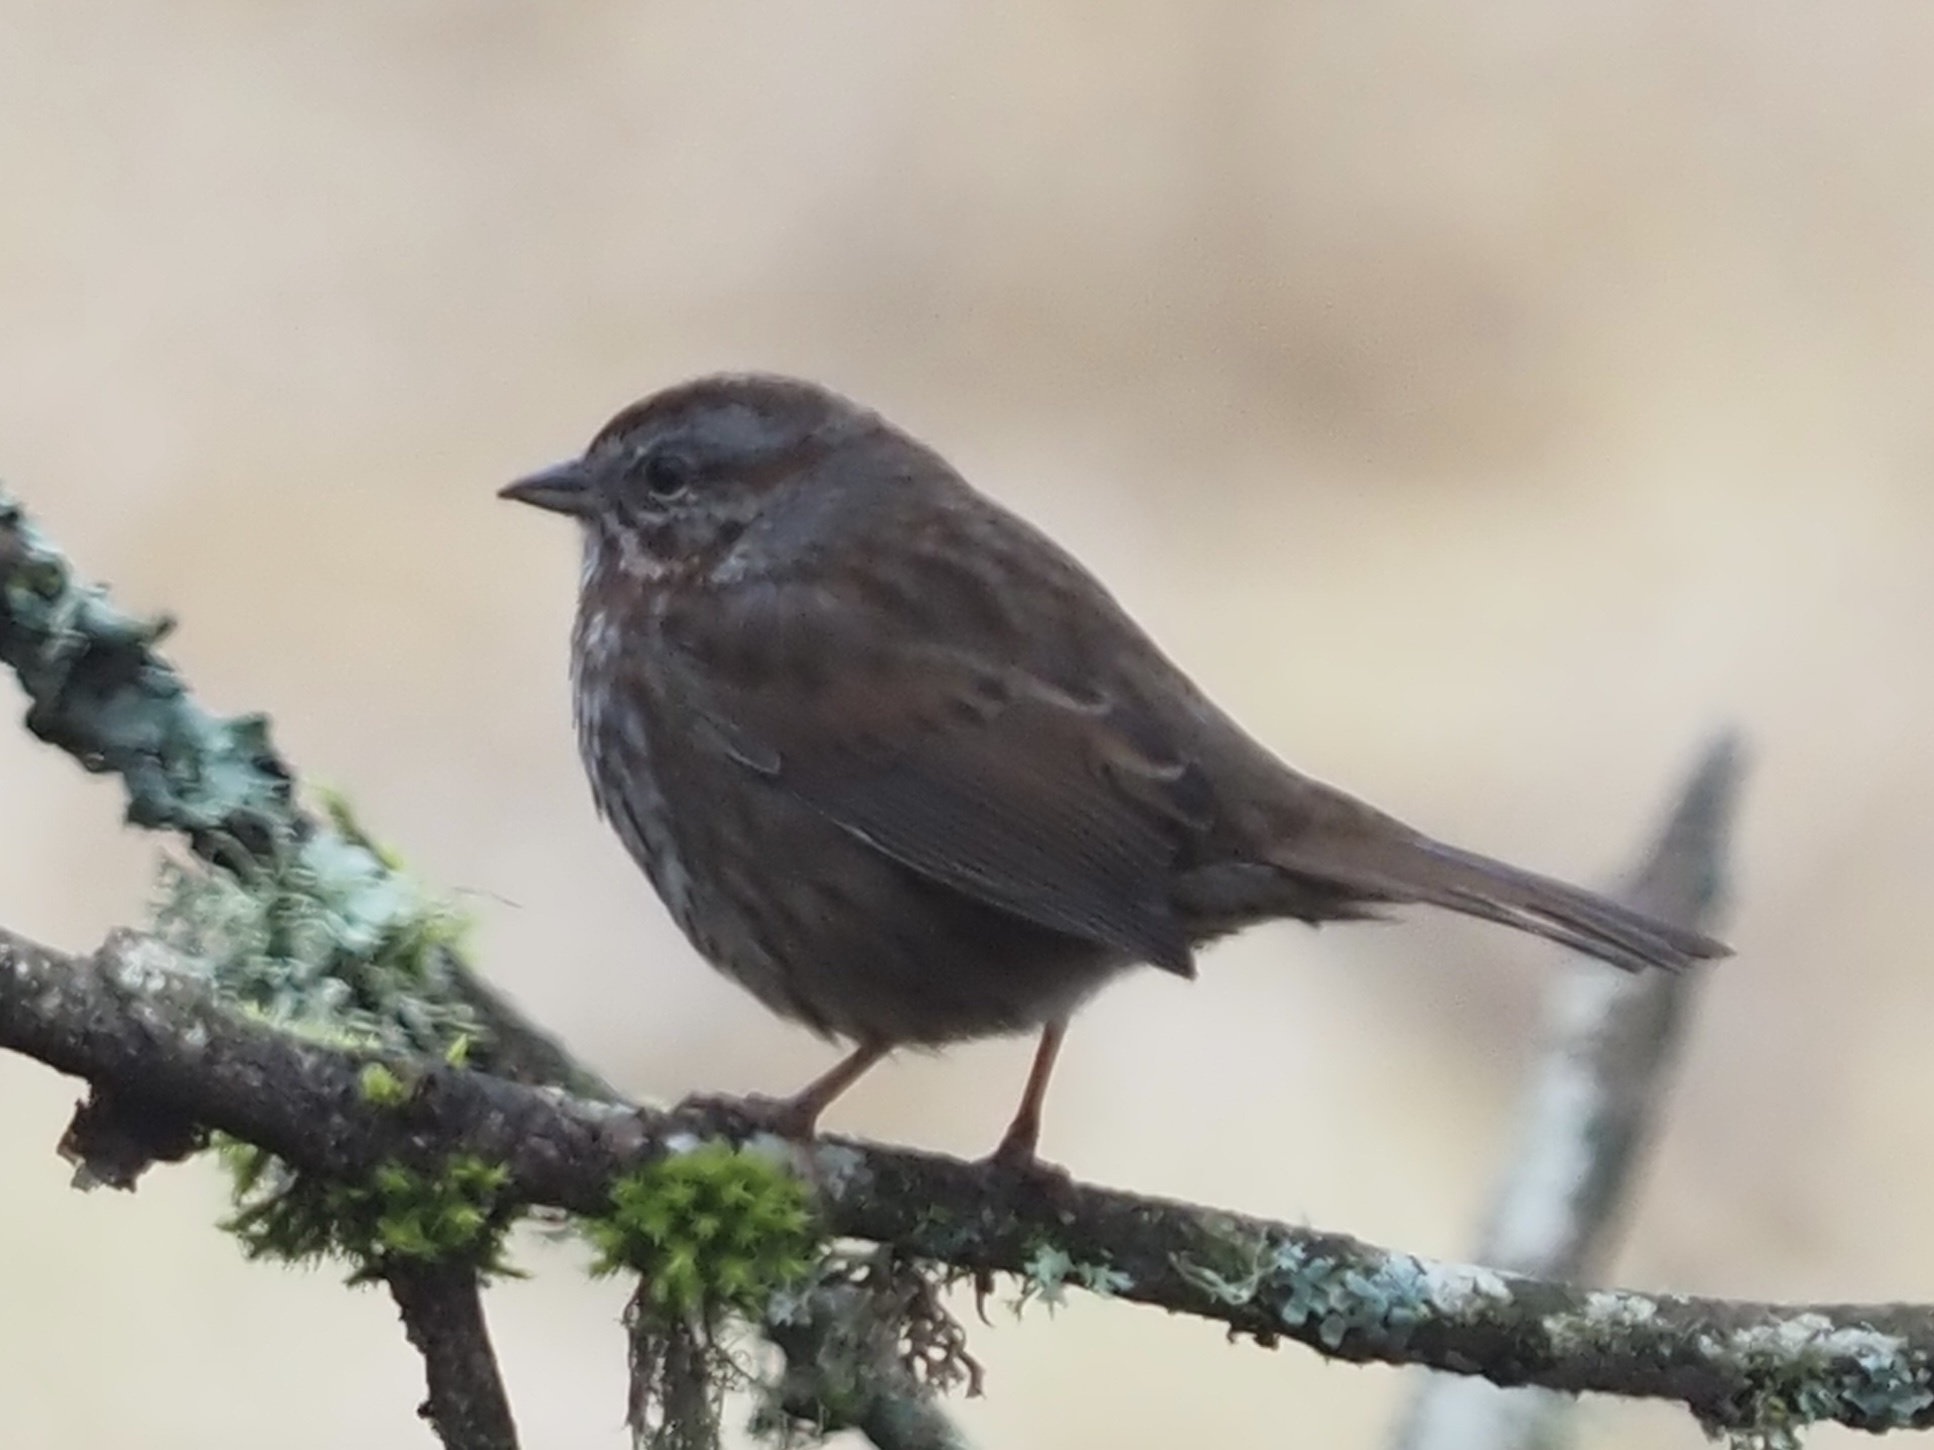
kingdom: Animalia
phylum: Chordata
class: Aves
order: Passeriformes
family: Passerellidae
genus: Melospiza
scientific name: Melospiza melodia
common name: Song sparrow
